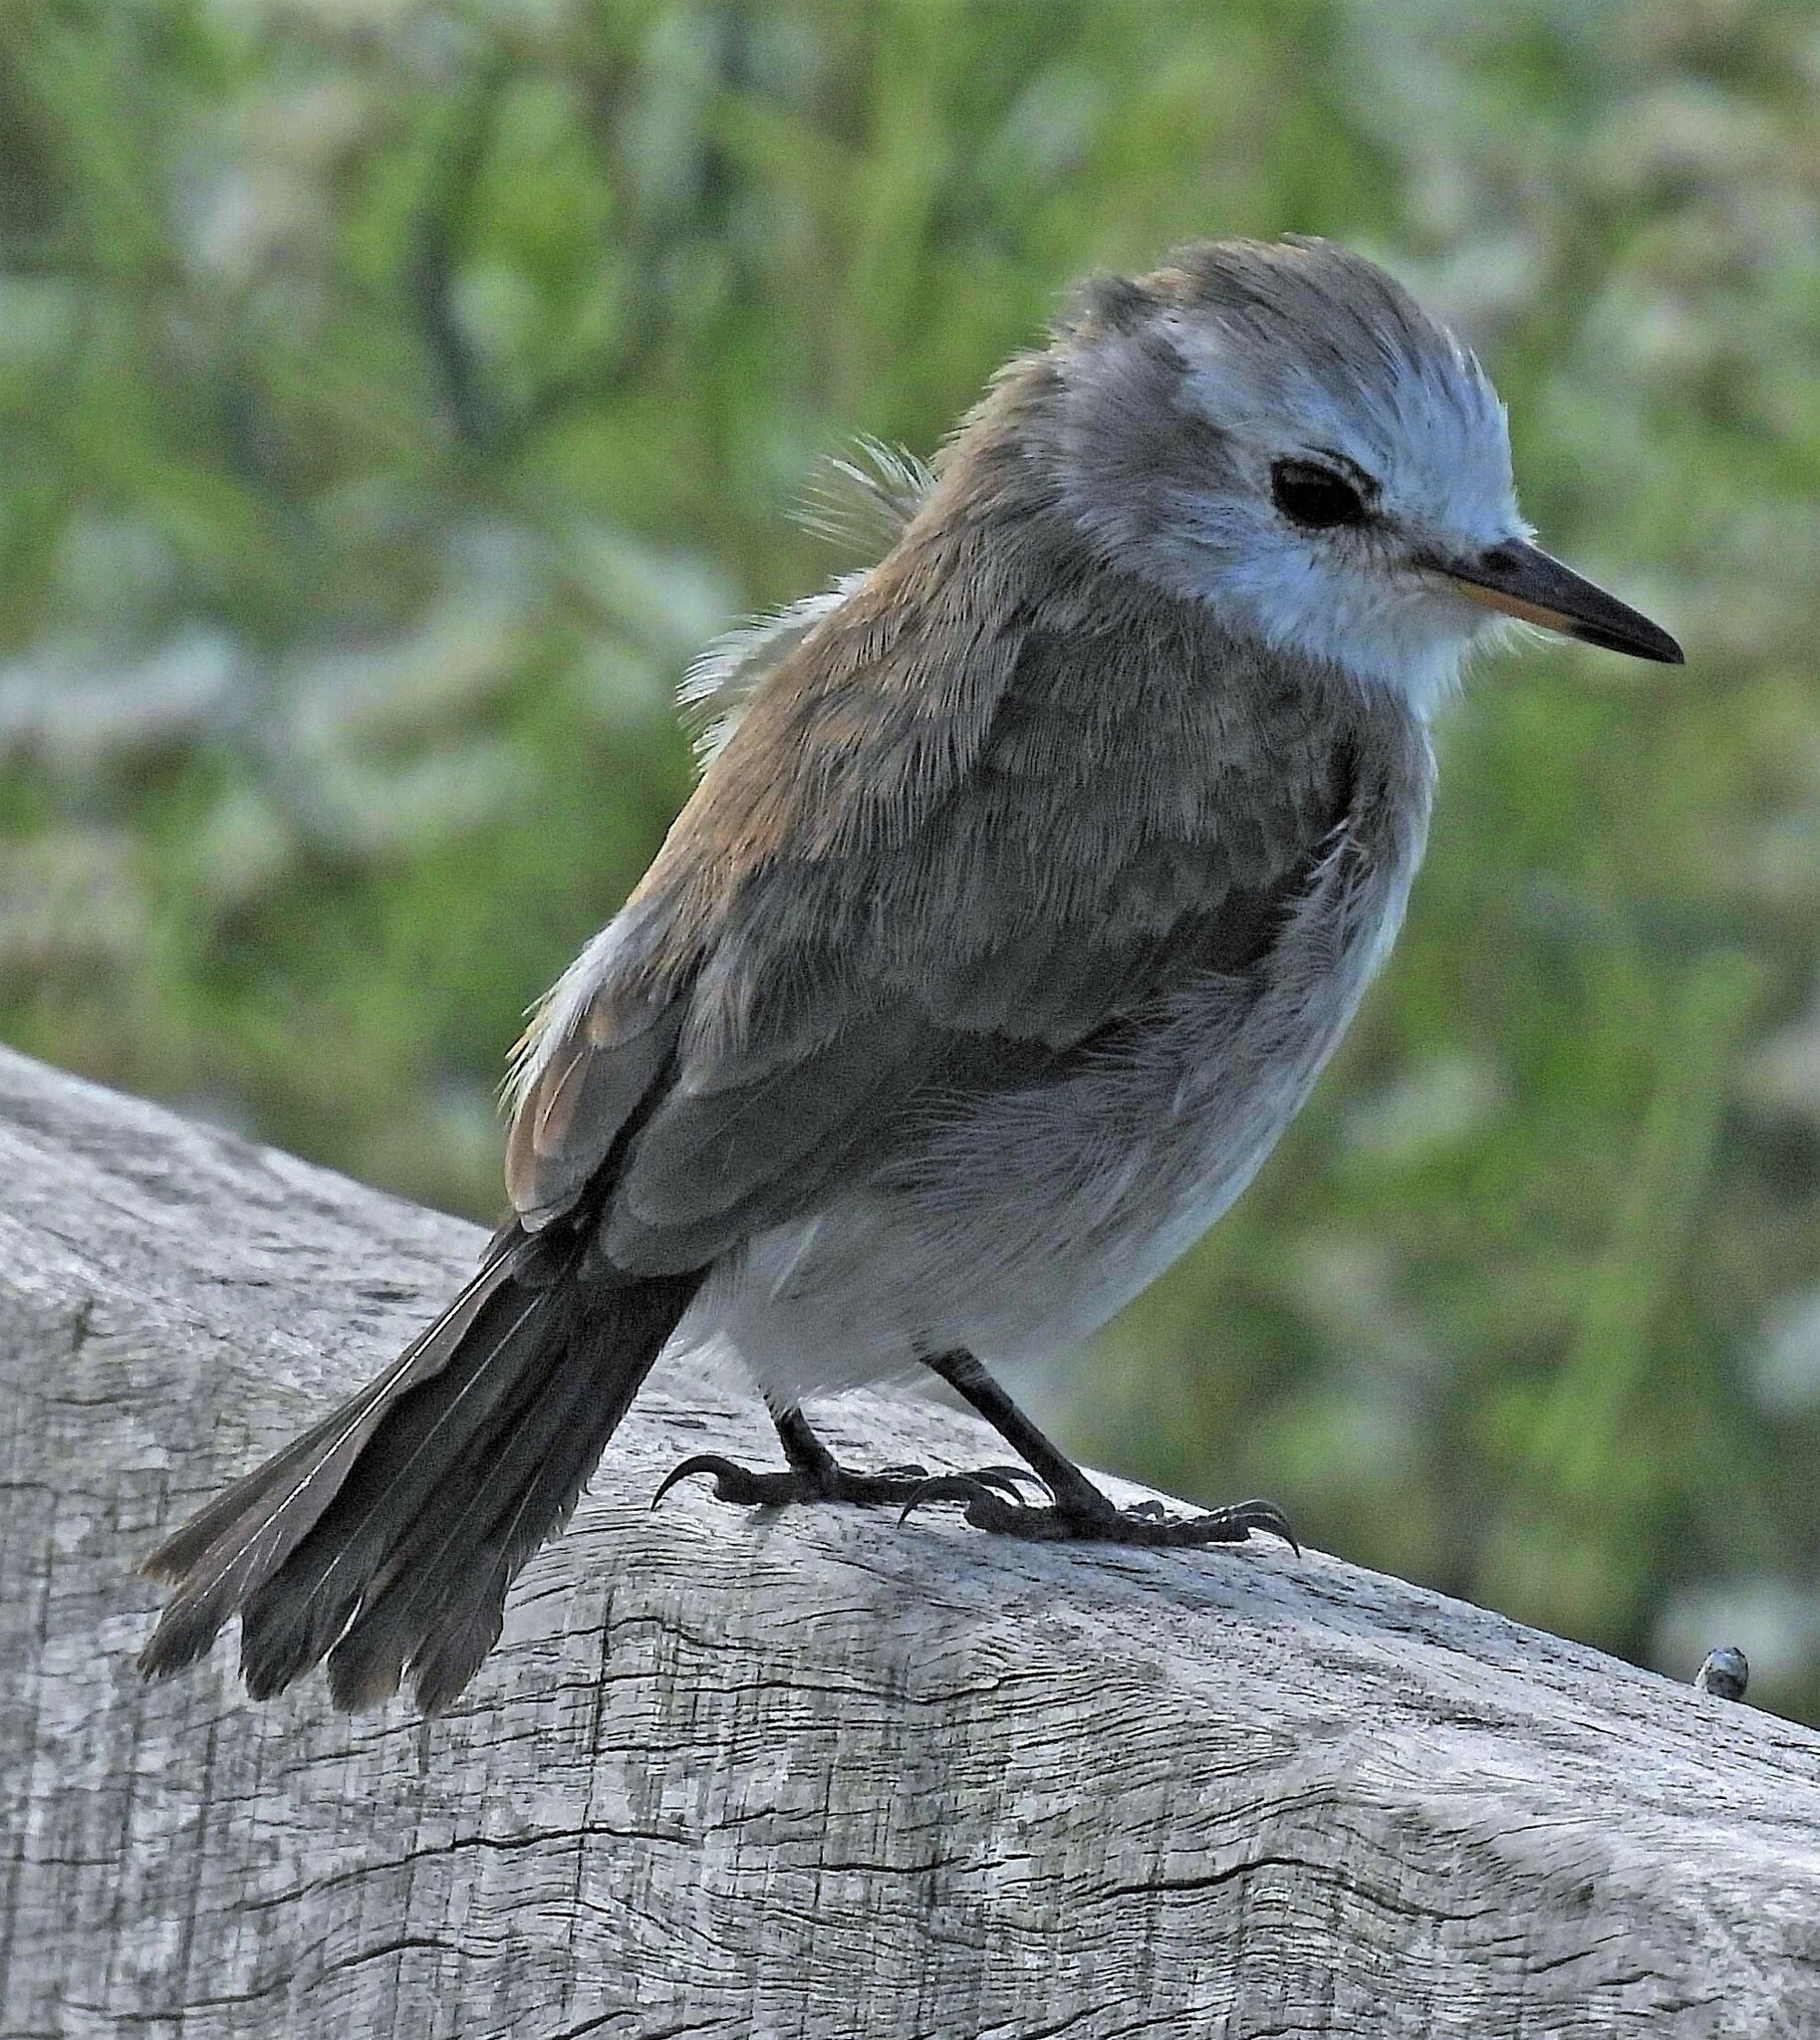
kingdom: Animalia
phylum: Chordata
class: Aves
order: Passeriformes
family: Tyrannidae
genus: Arundinicola
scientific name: Arundinicola leucocephala
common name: White-headed marsh tyrant
